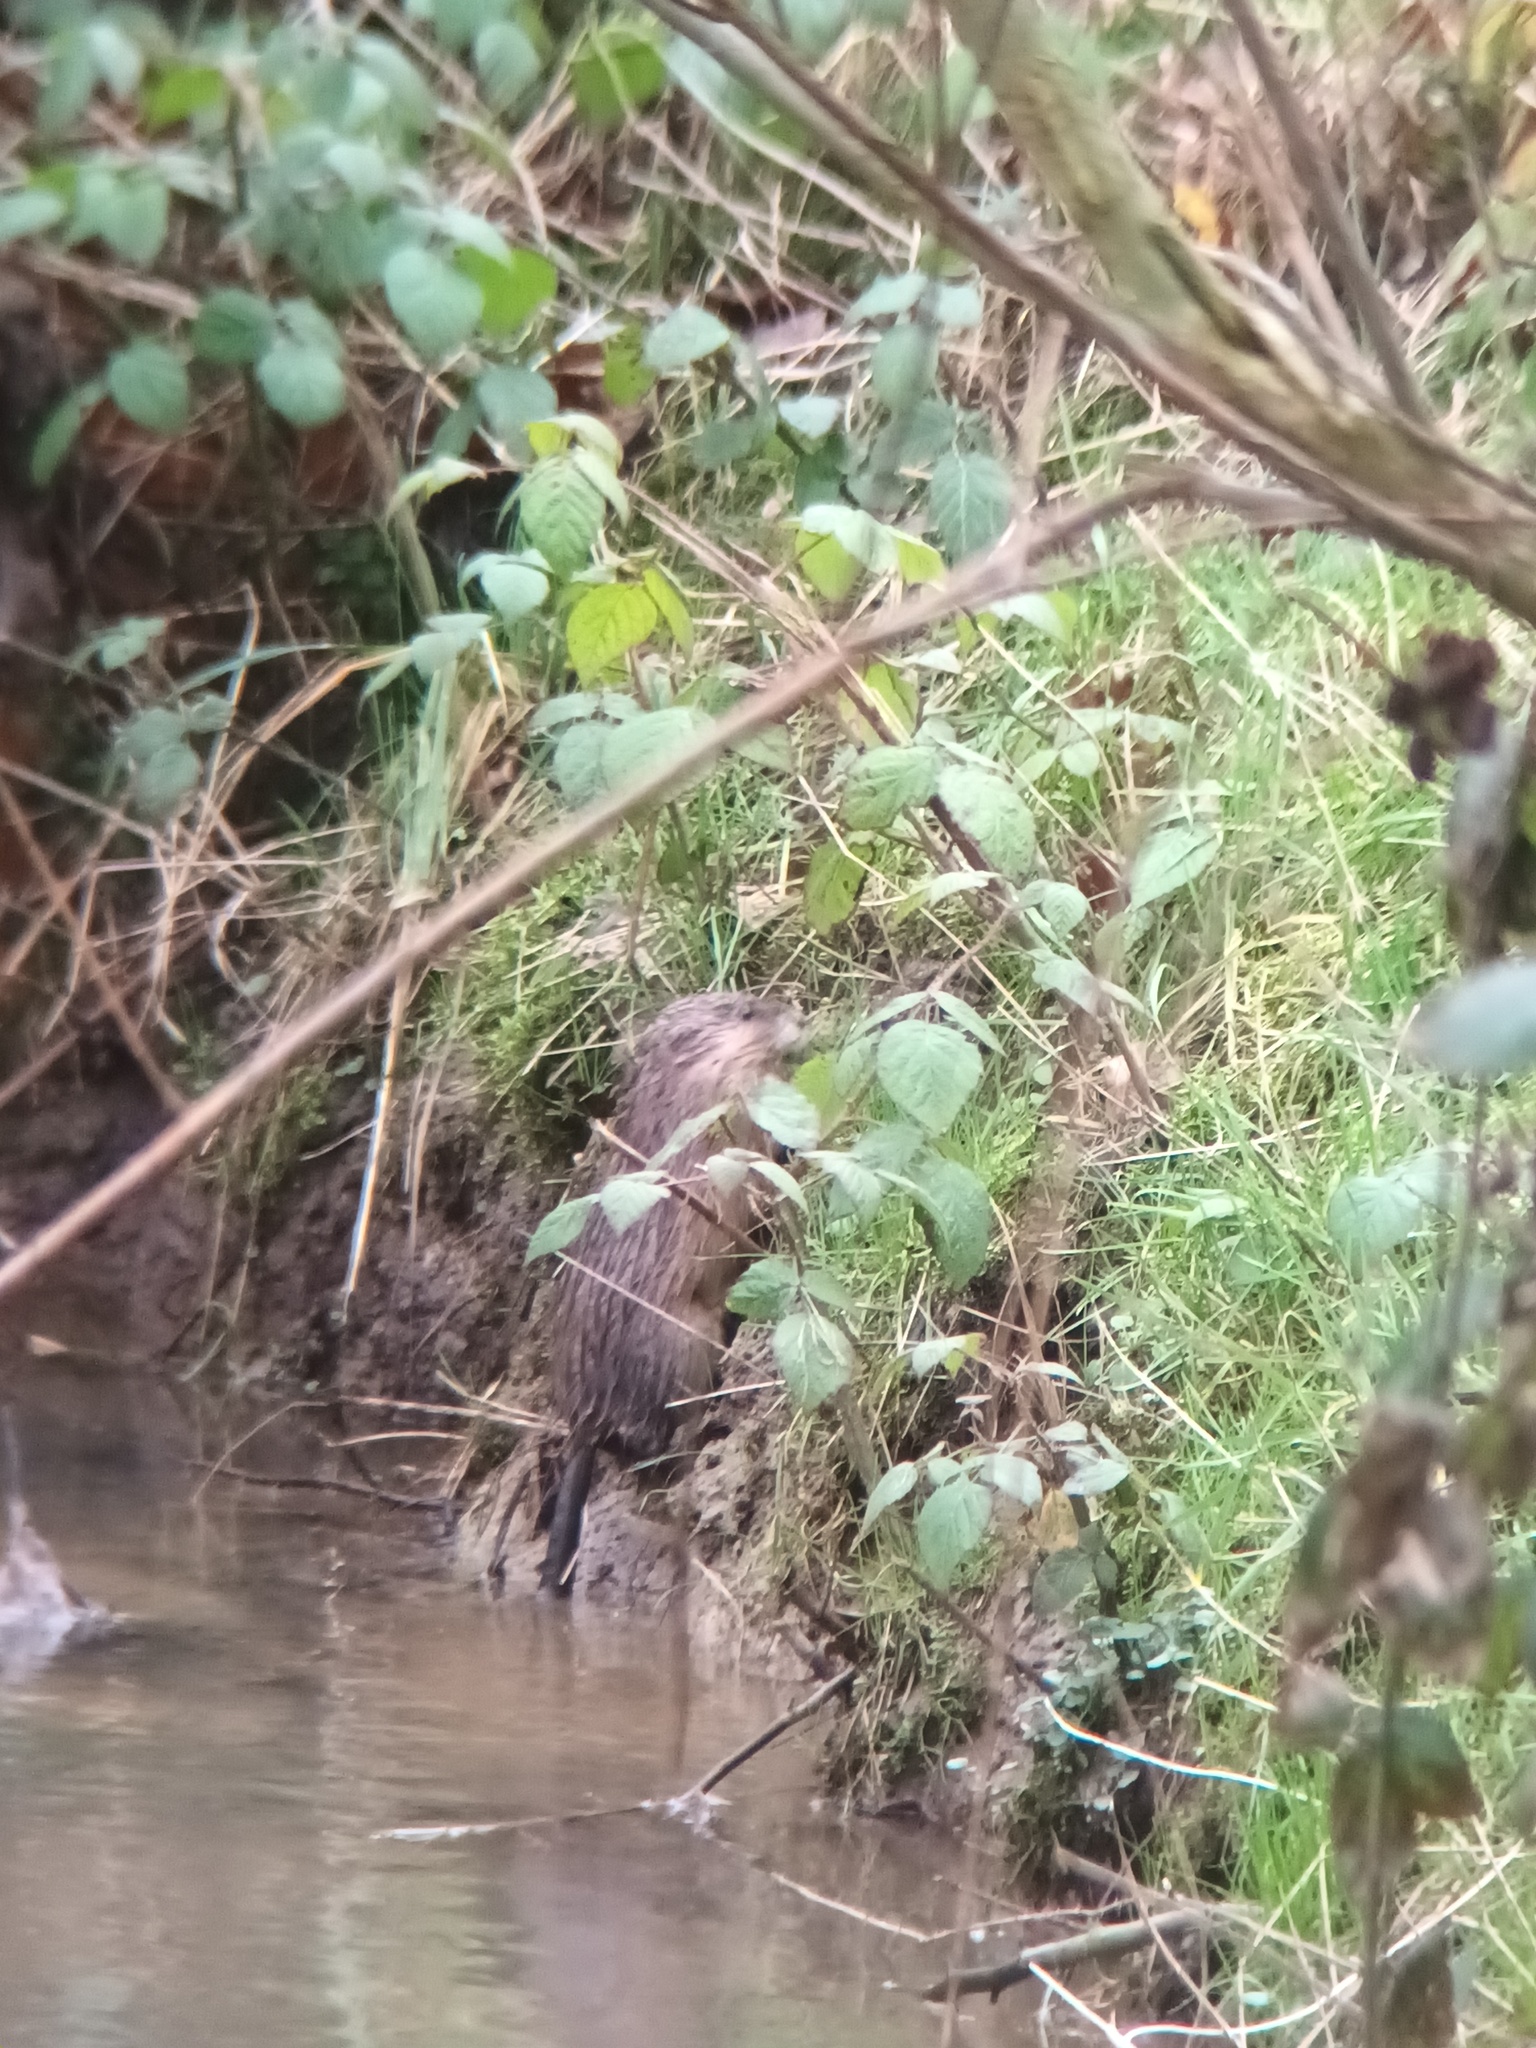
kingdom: Animalia
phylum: Chordata
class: Mammalia
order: Rodentia
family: Cricetidae
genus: Ondatra
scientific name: Ondatra zibethicus
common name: Muskrat
